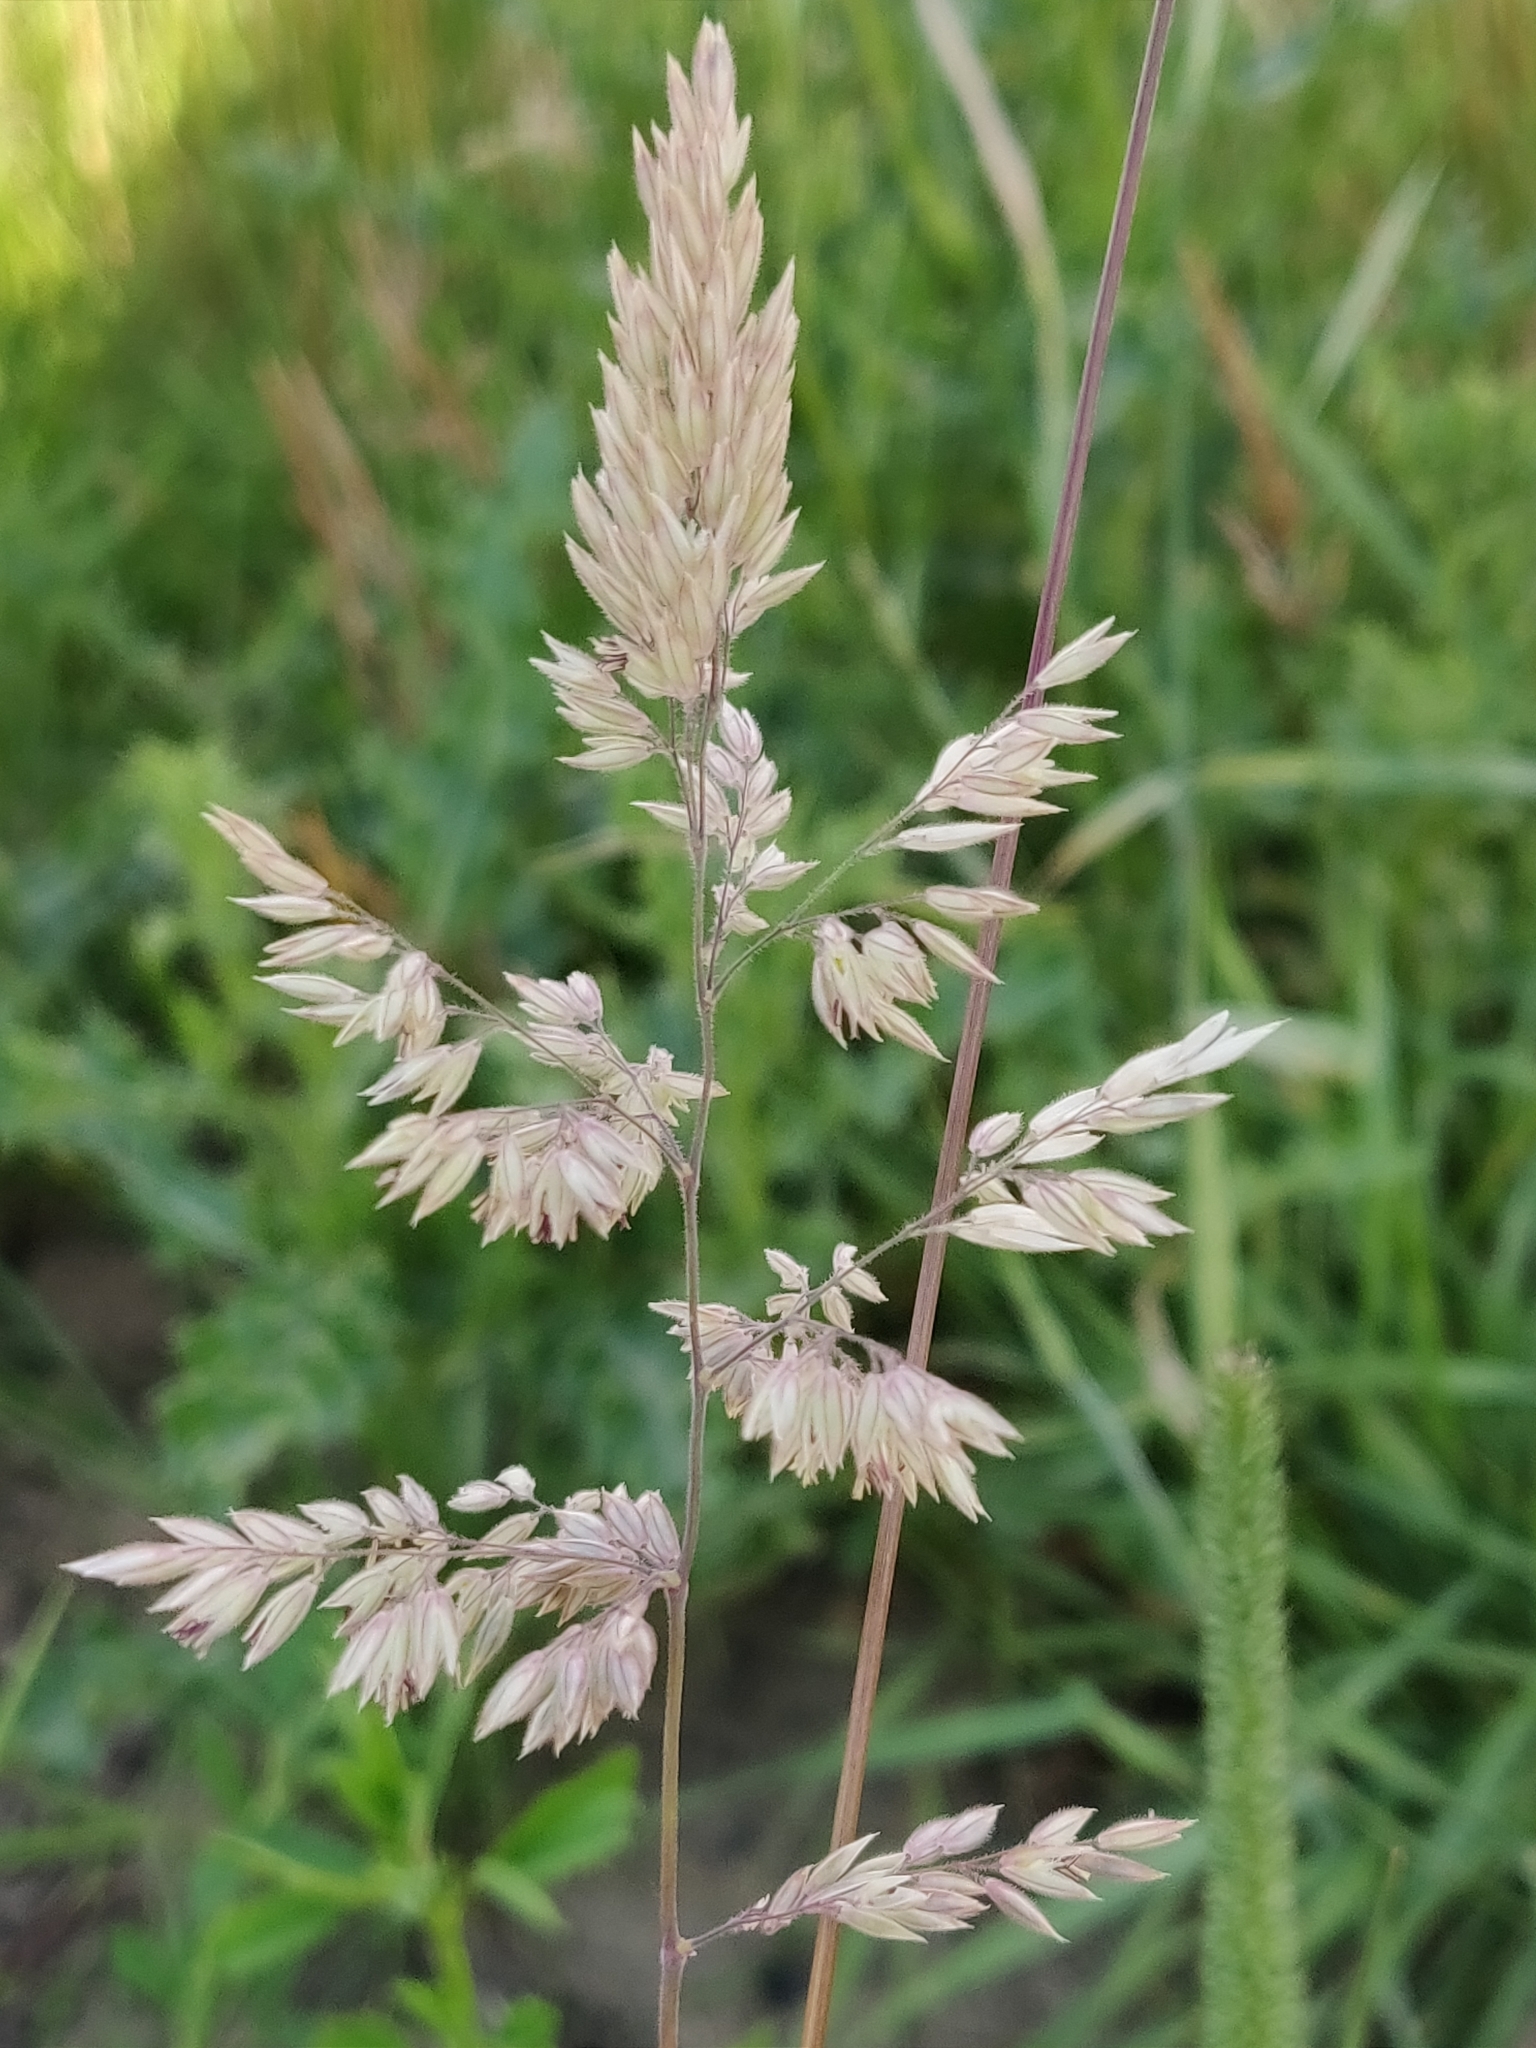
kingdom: Plantae
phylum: Tracheophyta
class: Liliopsida
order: Poales
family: Poaceae
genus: Holcus
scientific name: Holcus lanatus
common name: Yorkshire-fog
